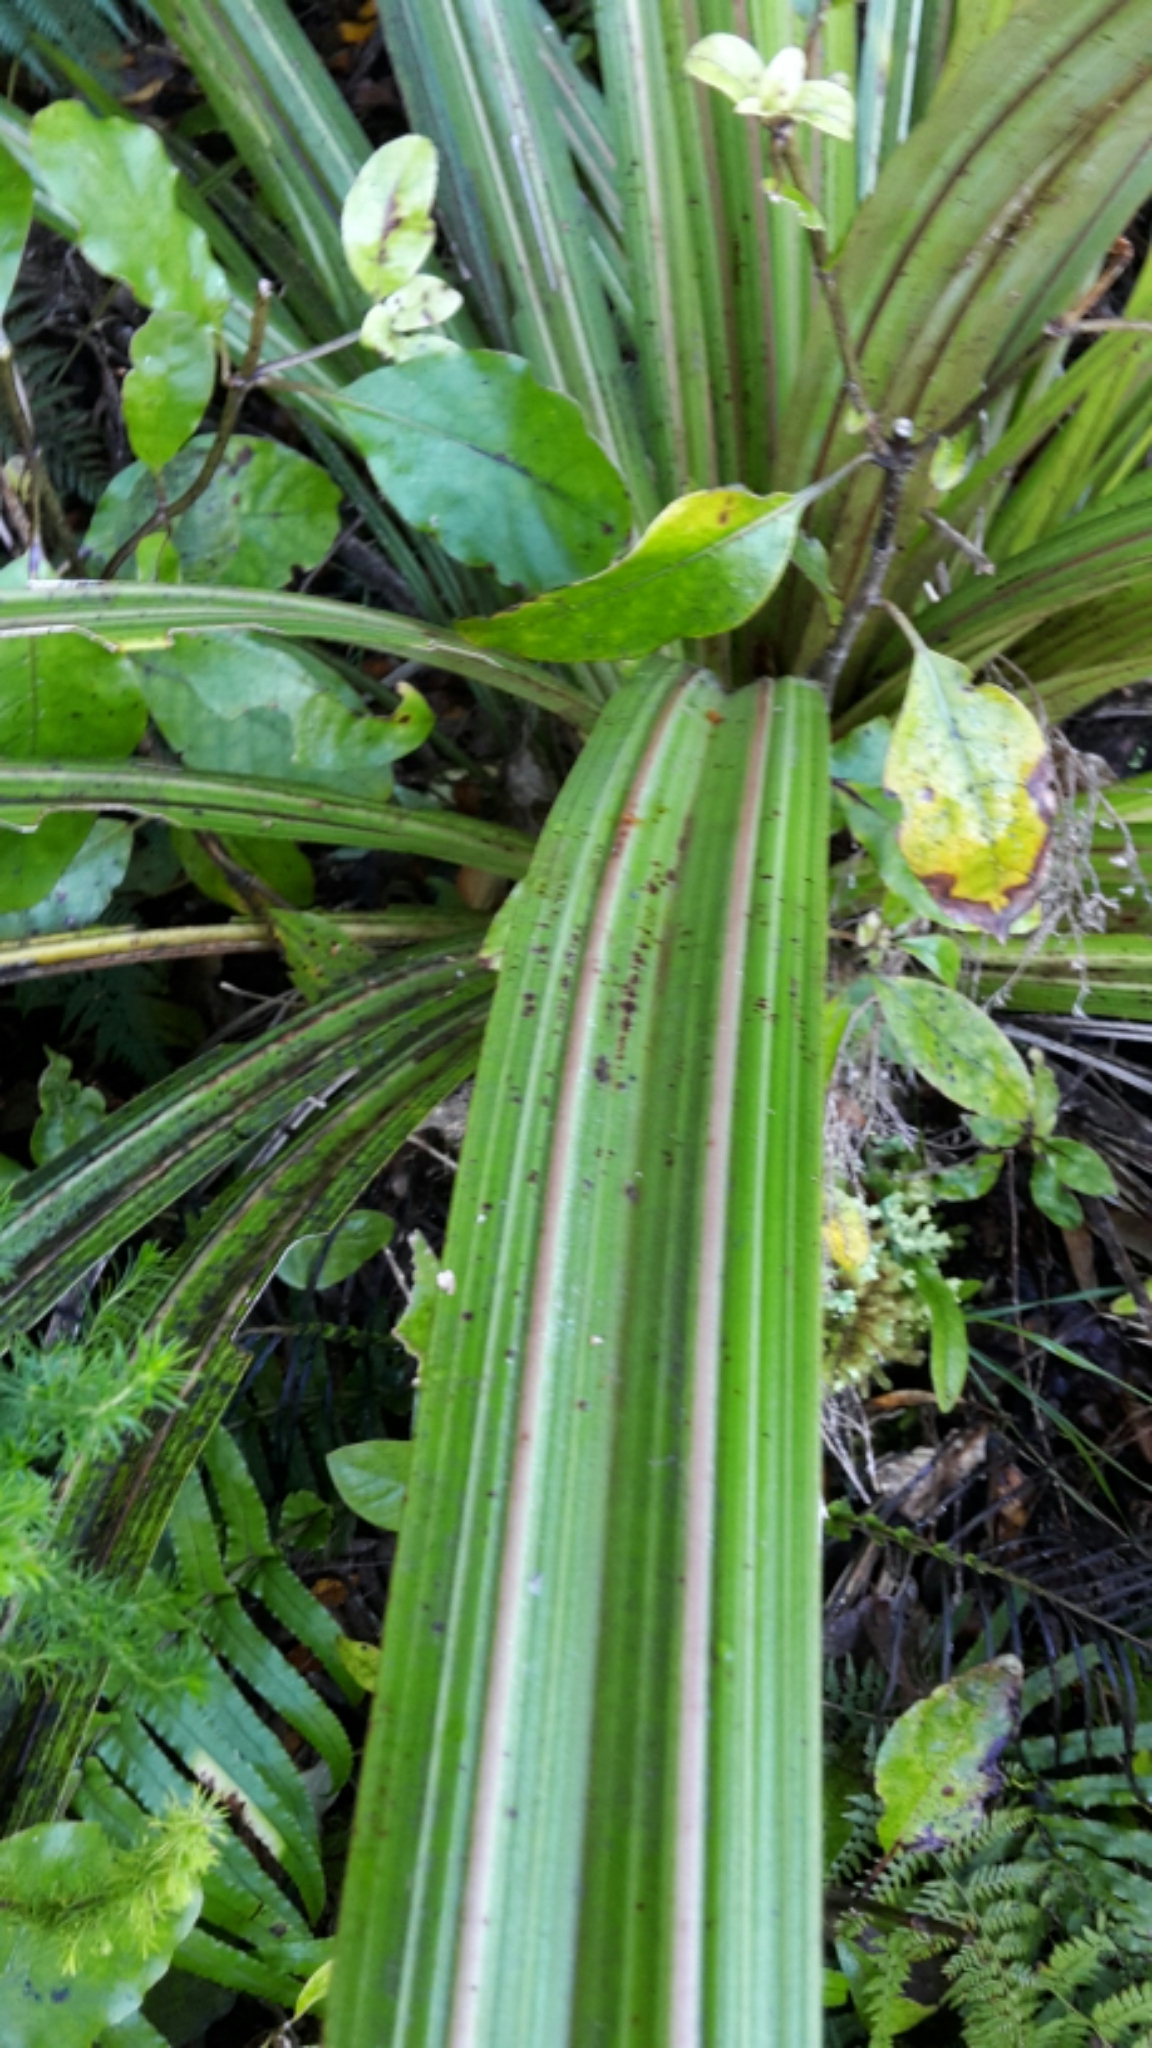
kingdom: Plantae
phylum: Tracheophyta
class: Liliopsida
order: Asparagales
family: Asteliaceae
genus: Astelia
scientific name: Astelia fragrans
